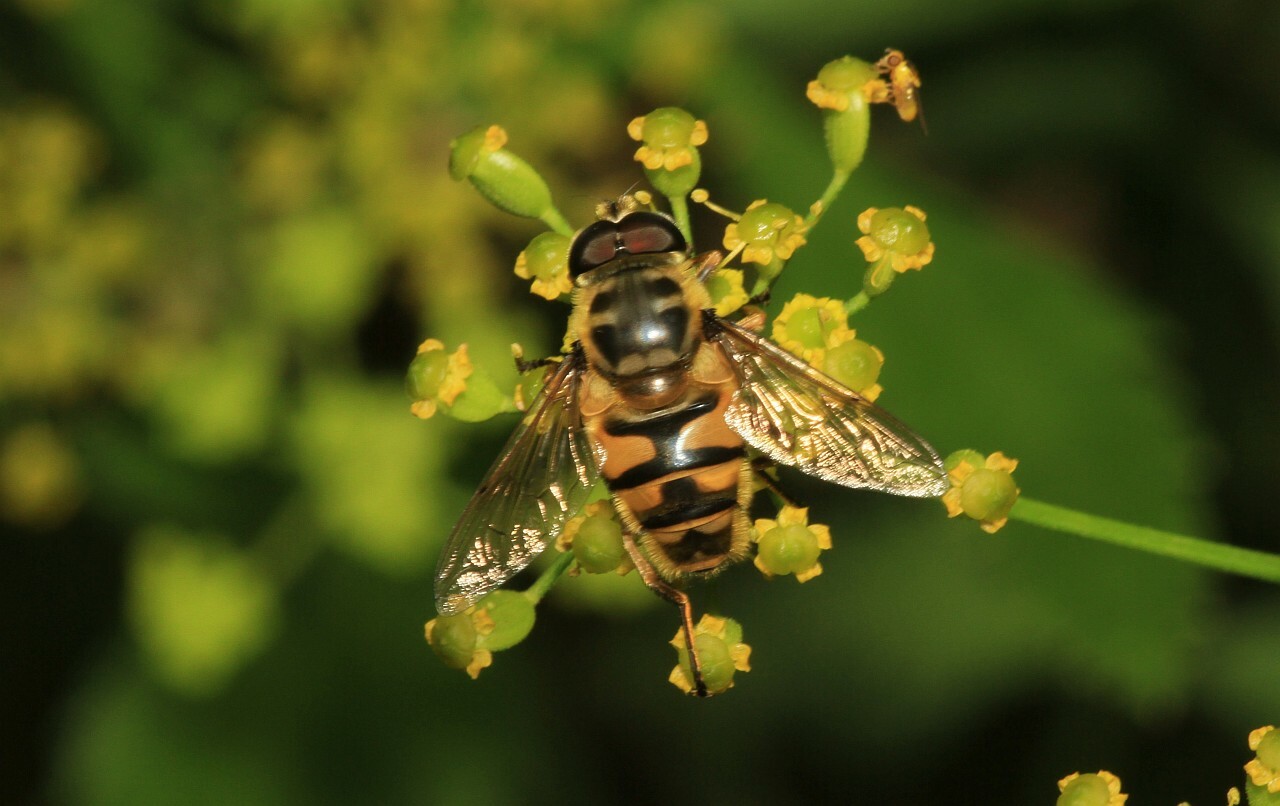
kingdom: Animalia
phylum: Arthropoda
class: Insecta
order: Diptera
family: Syrphidae
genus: Myathropa
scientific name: Myathropa florea
